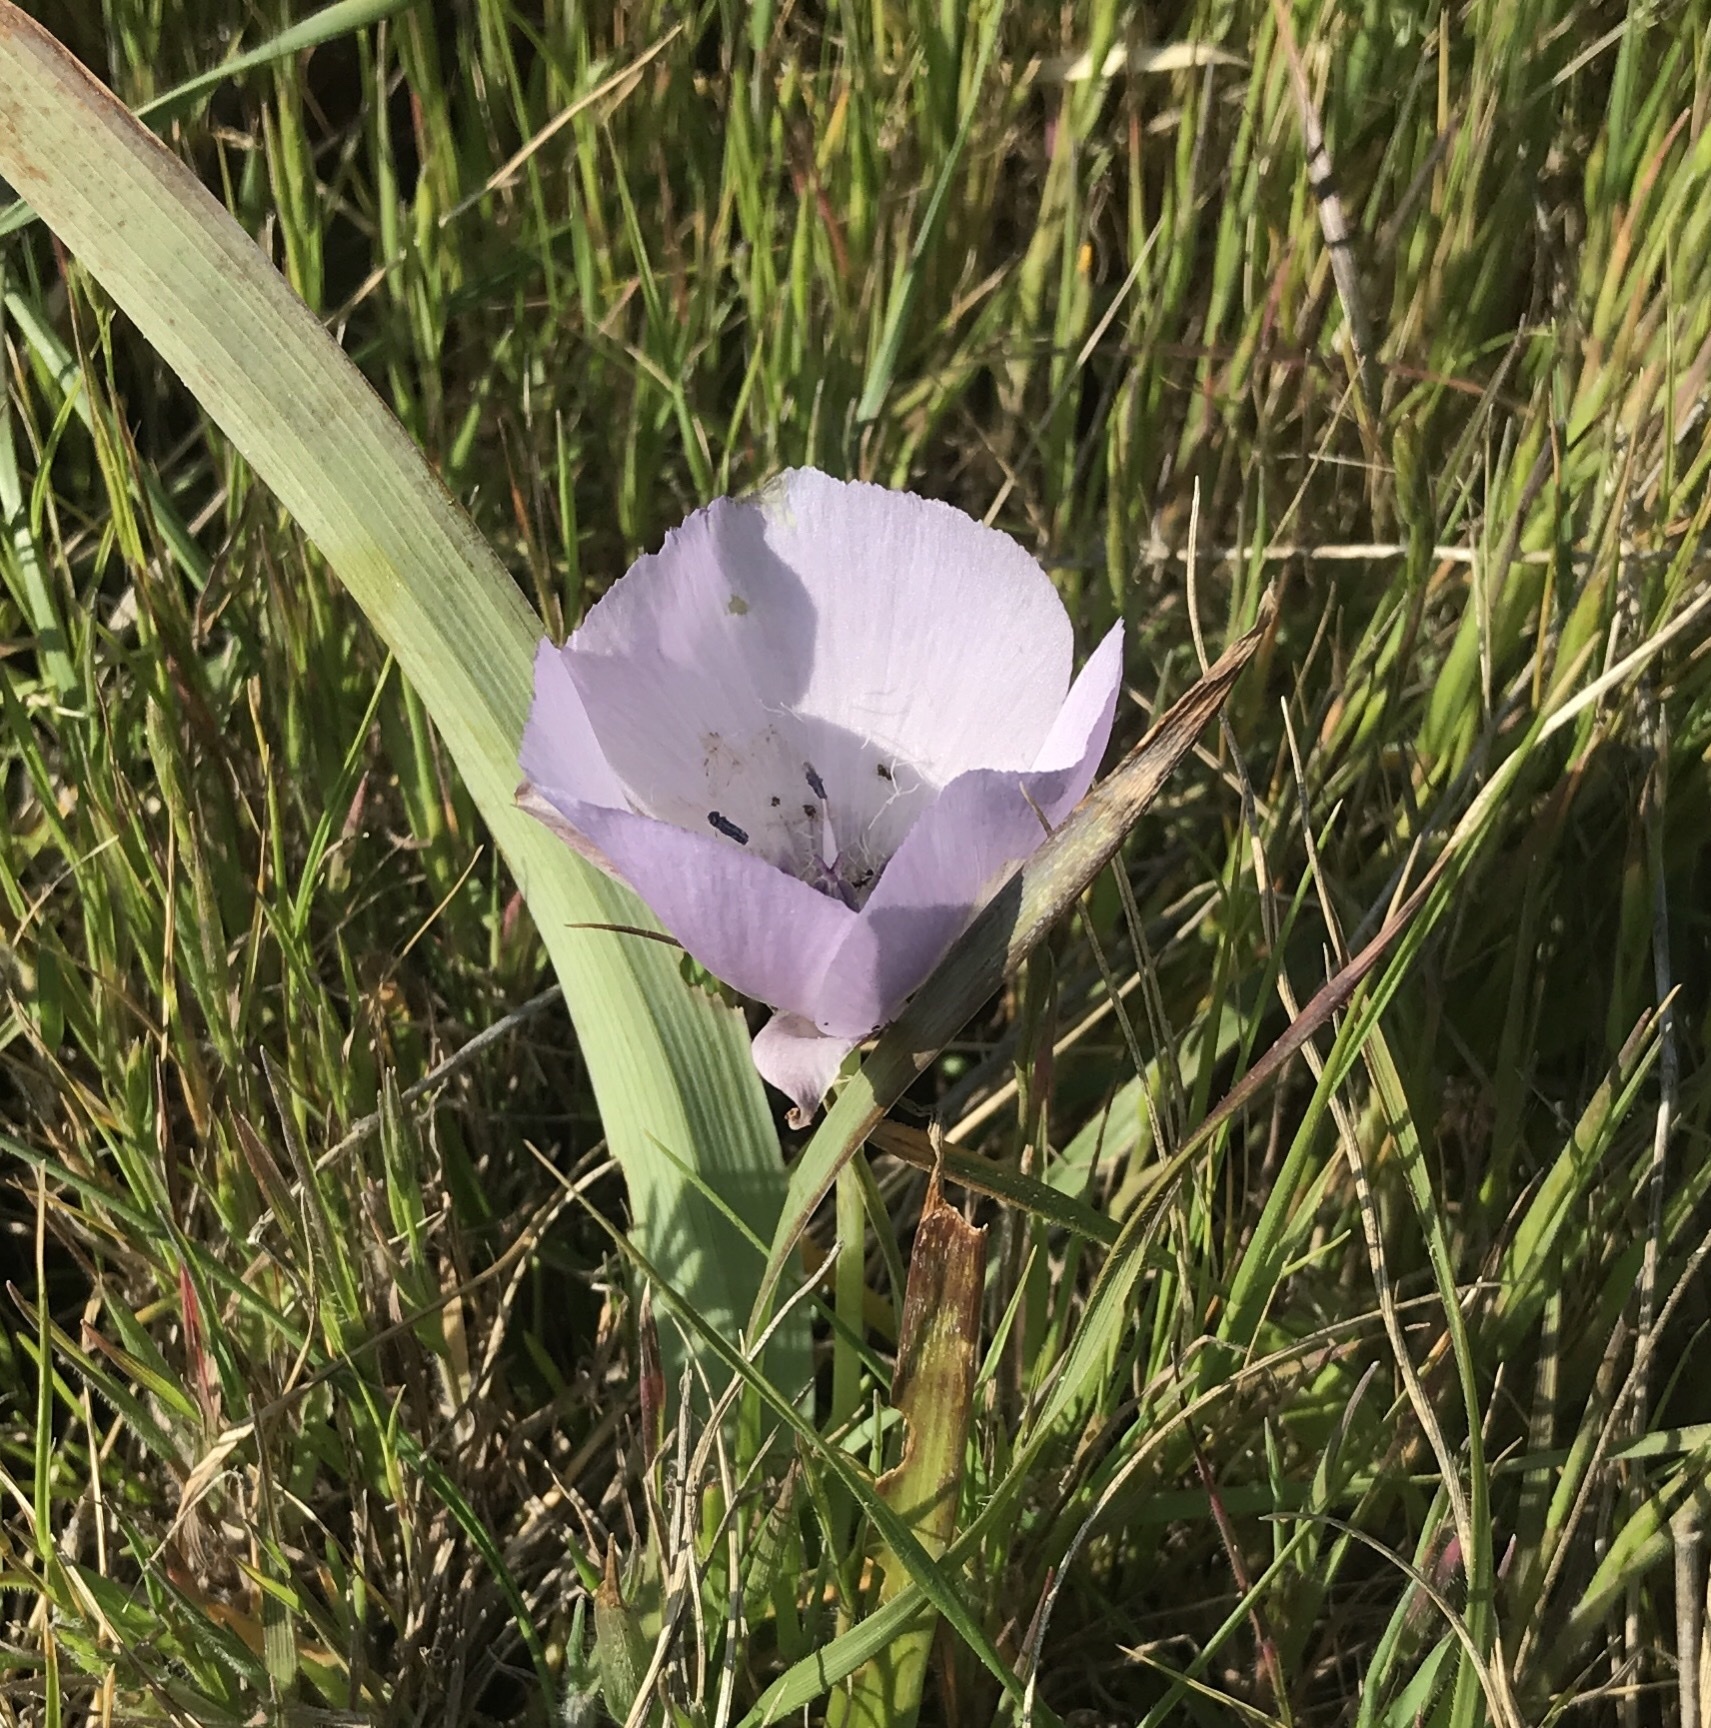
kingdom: Plantae
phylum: Tracheophyta
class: Liliopsida
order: Liliales
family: Liliaceae
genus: Calochortus
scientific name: Calochortus uniflorus
